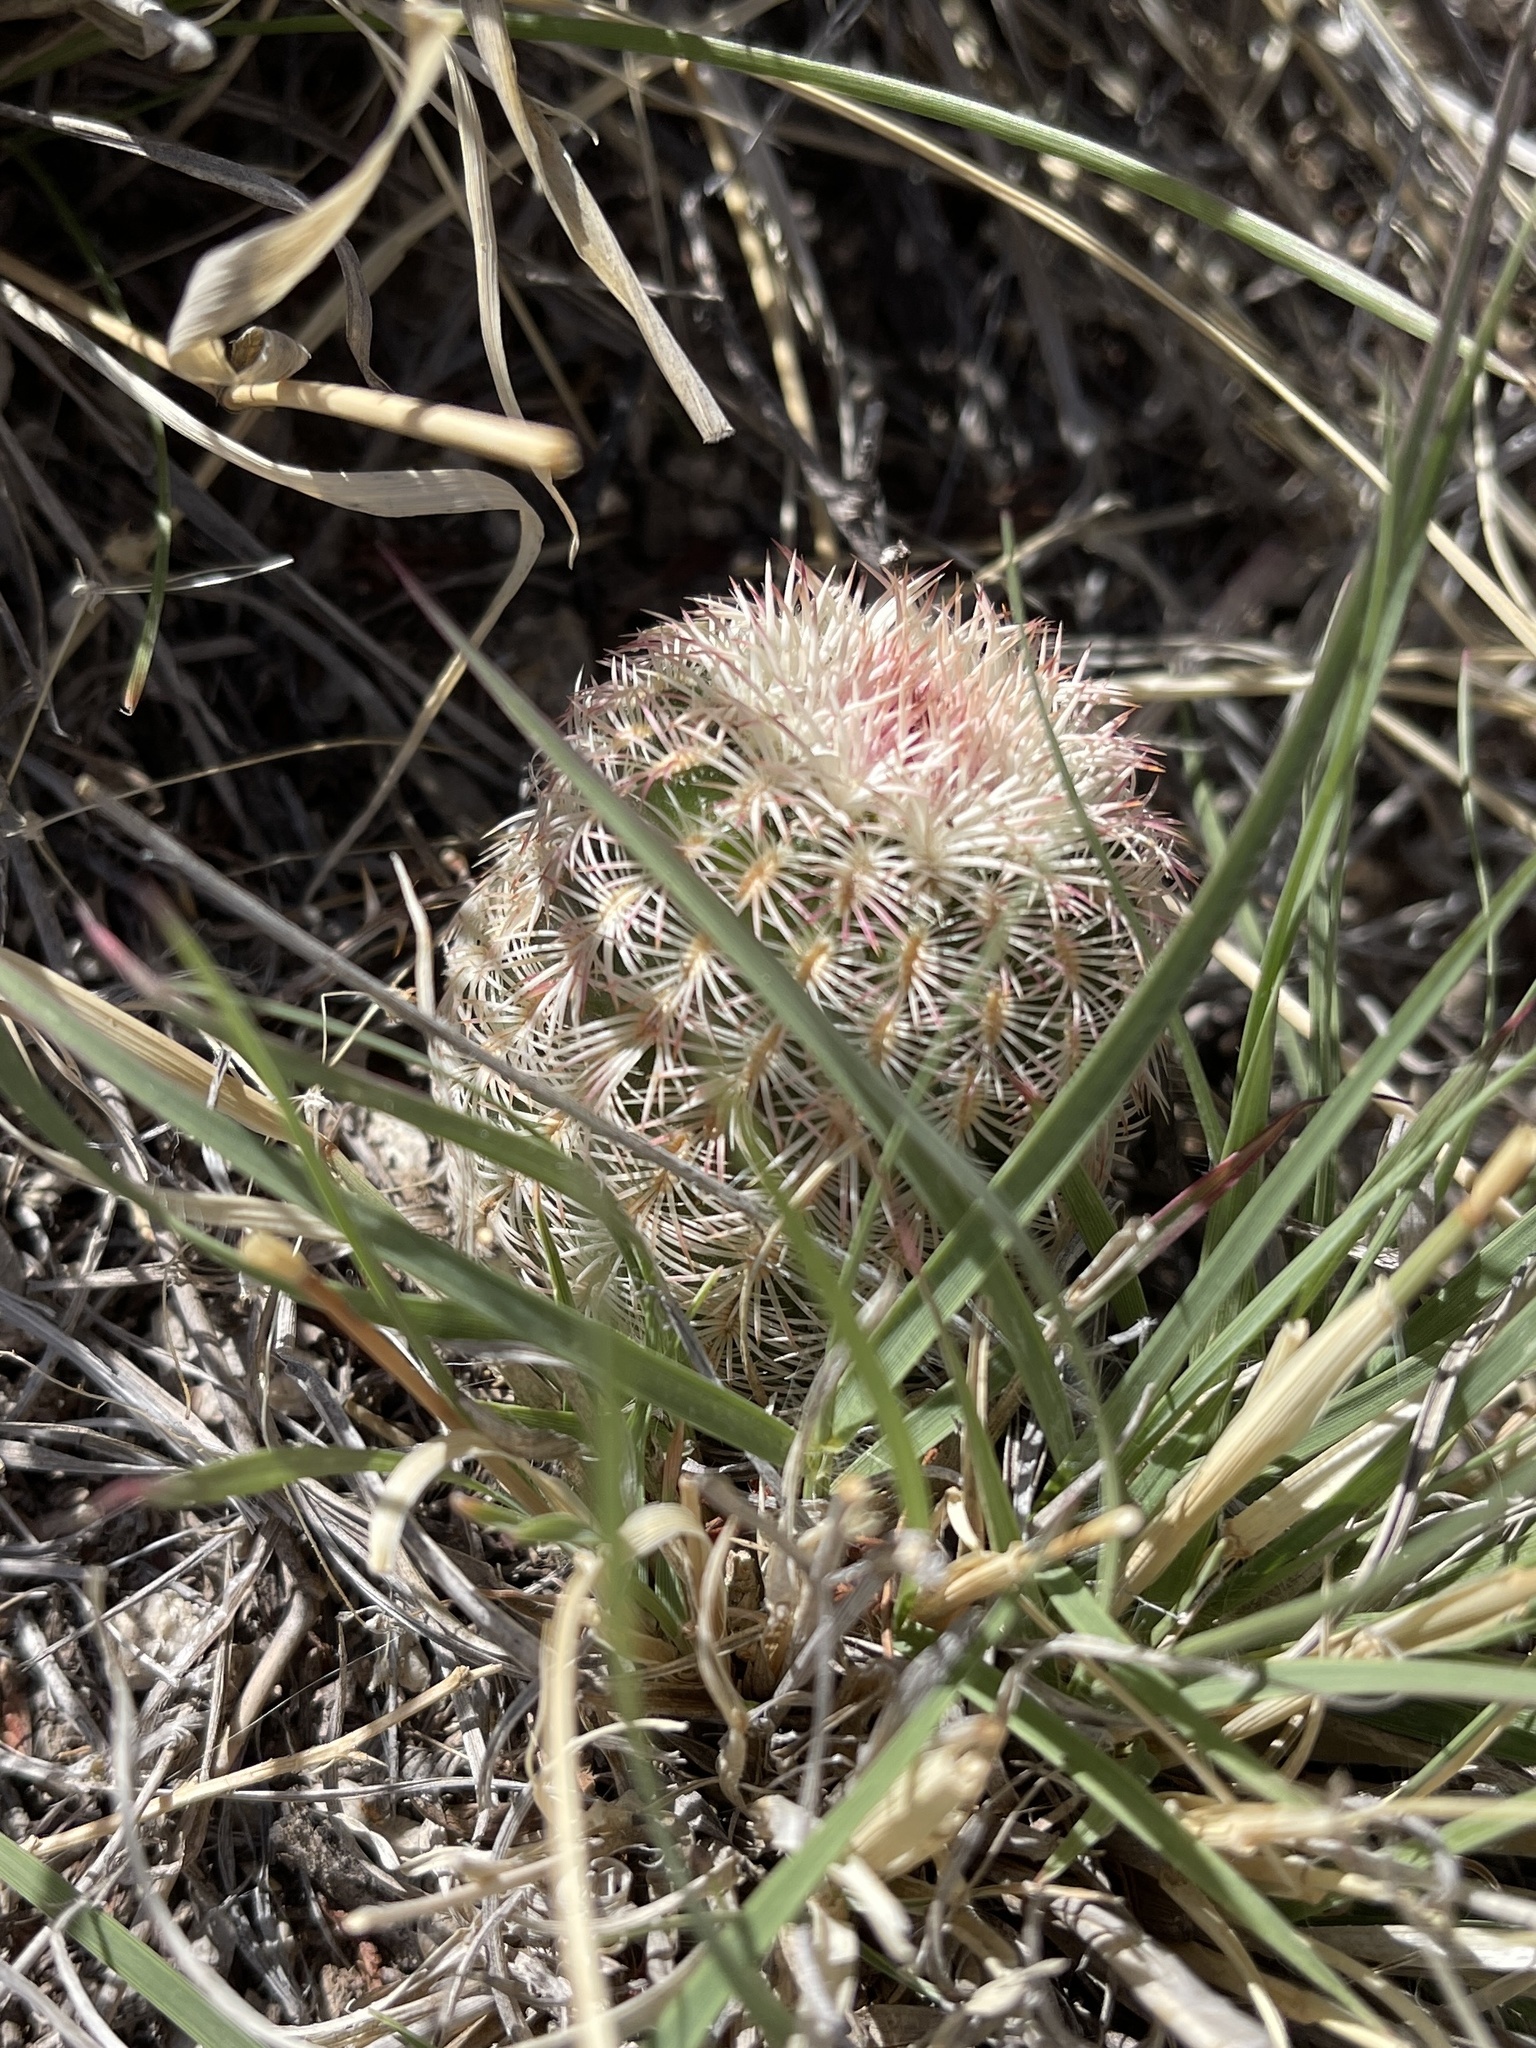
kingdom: Plantae
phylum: Tracheophyta
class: Magnoliopsida
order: Caryophyllales
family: Cactaceae
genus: Echinocereus
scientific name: Echinocereus rigidissimus
